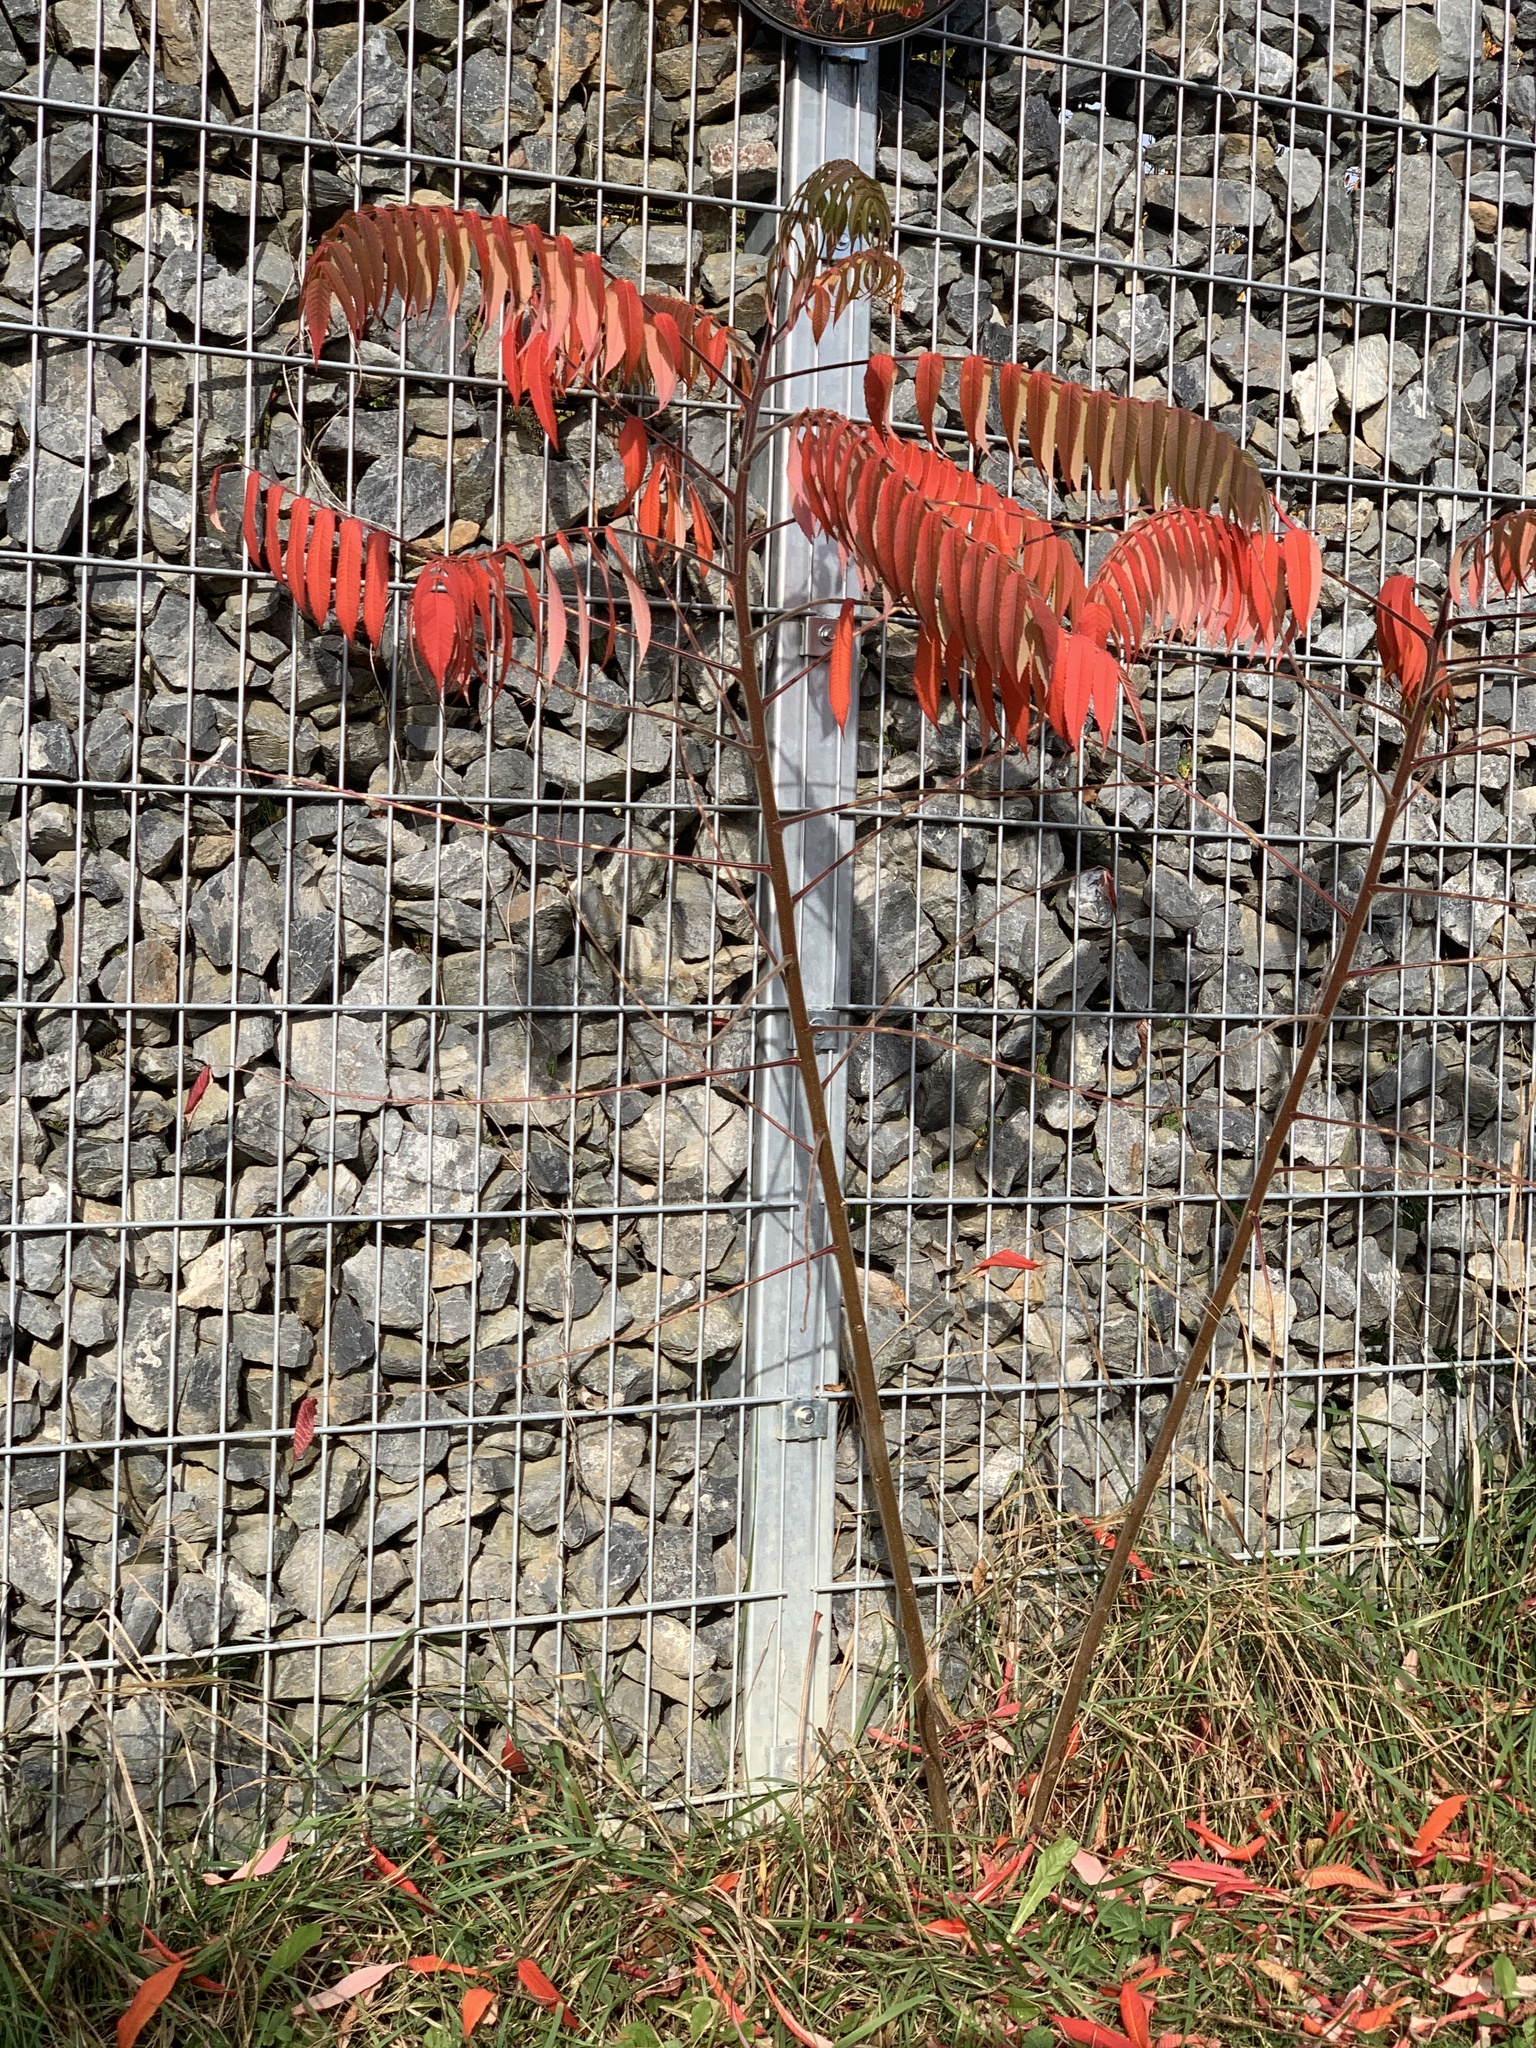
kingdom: Plantae
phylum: Tracheophyta
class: Magnoliopsida
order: Sapindales
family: Anacardiaceae
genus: Rhus
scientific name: Rhus typhina
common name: Staghorn sumac
